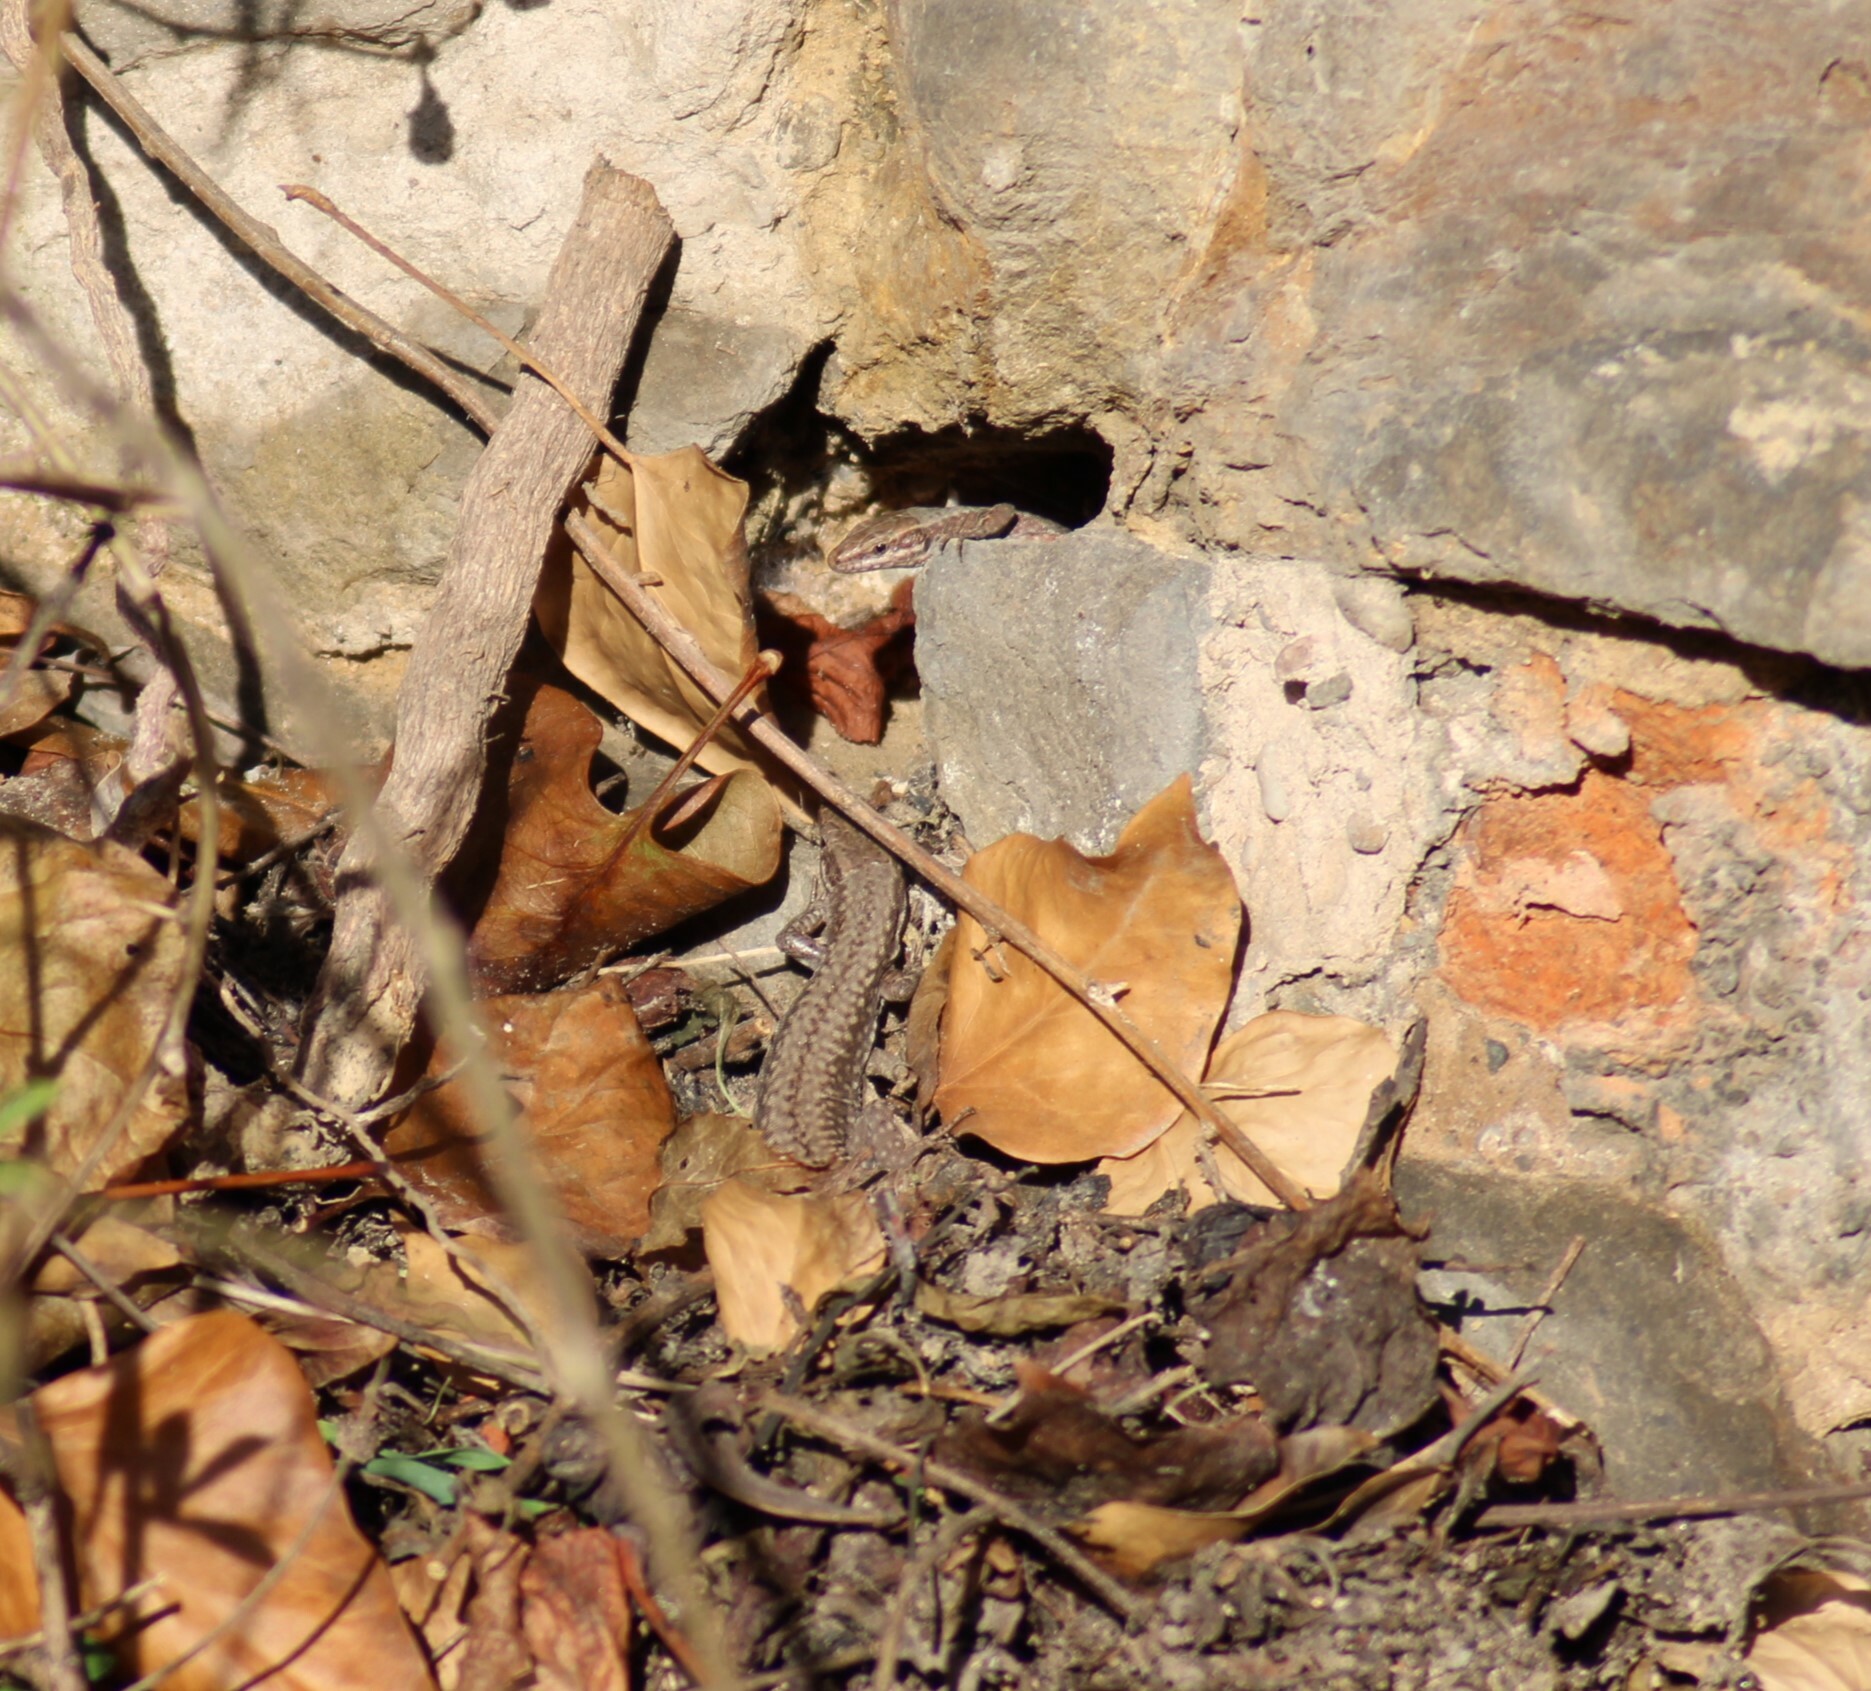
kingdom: Animalia
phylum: Chordata
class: Squamata
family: Lacertidae
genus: Podarcis
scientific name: Podarcis muralis
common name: Common wall lizard
